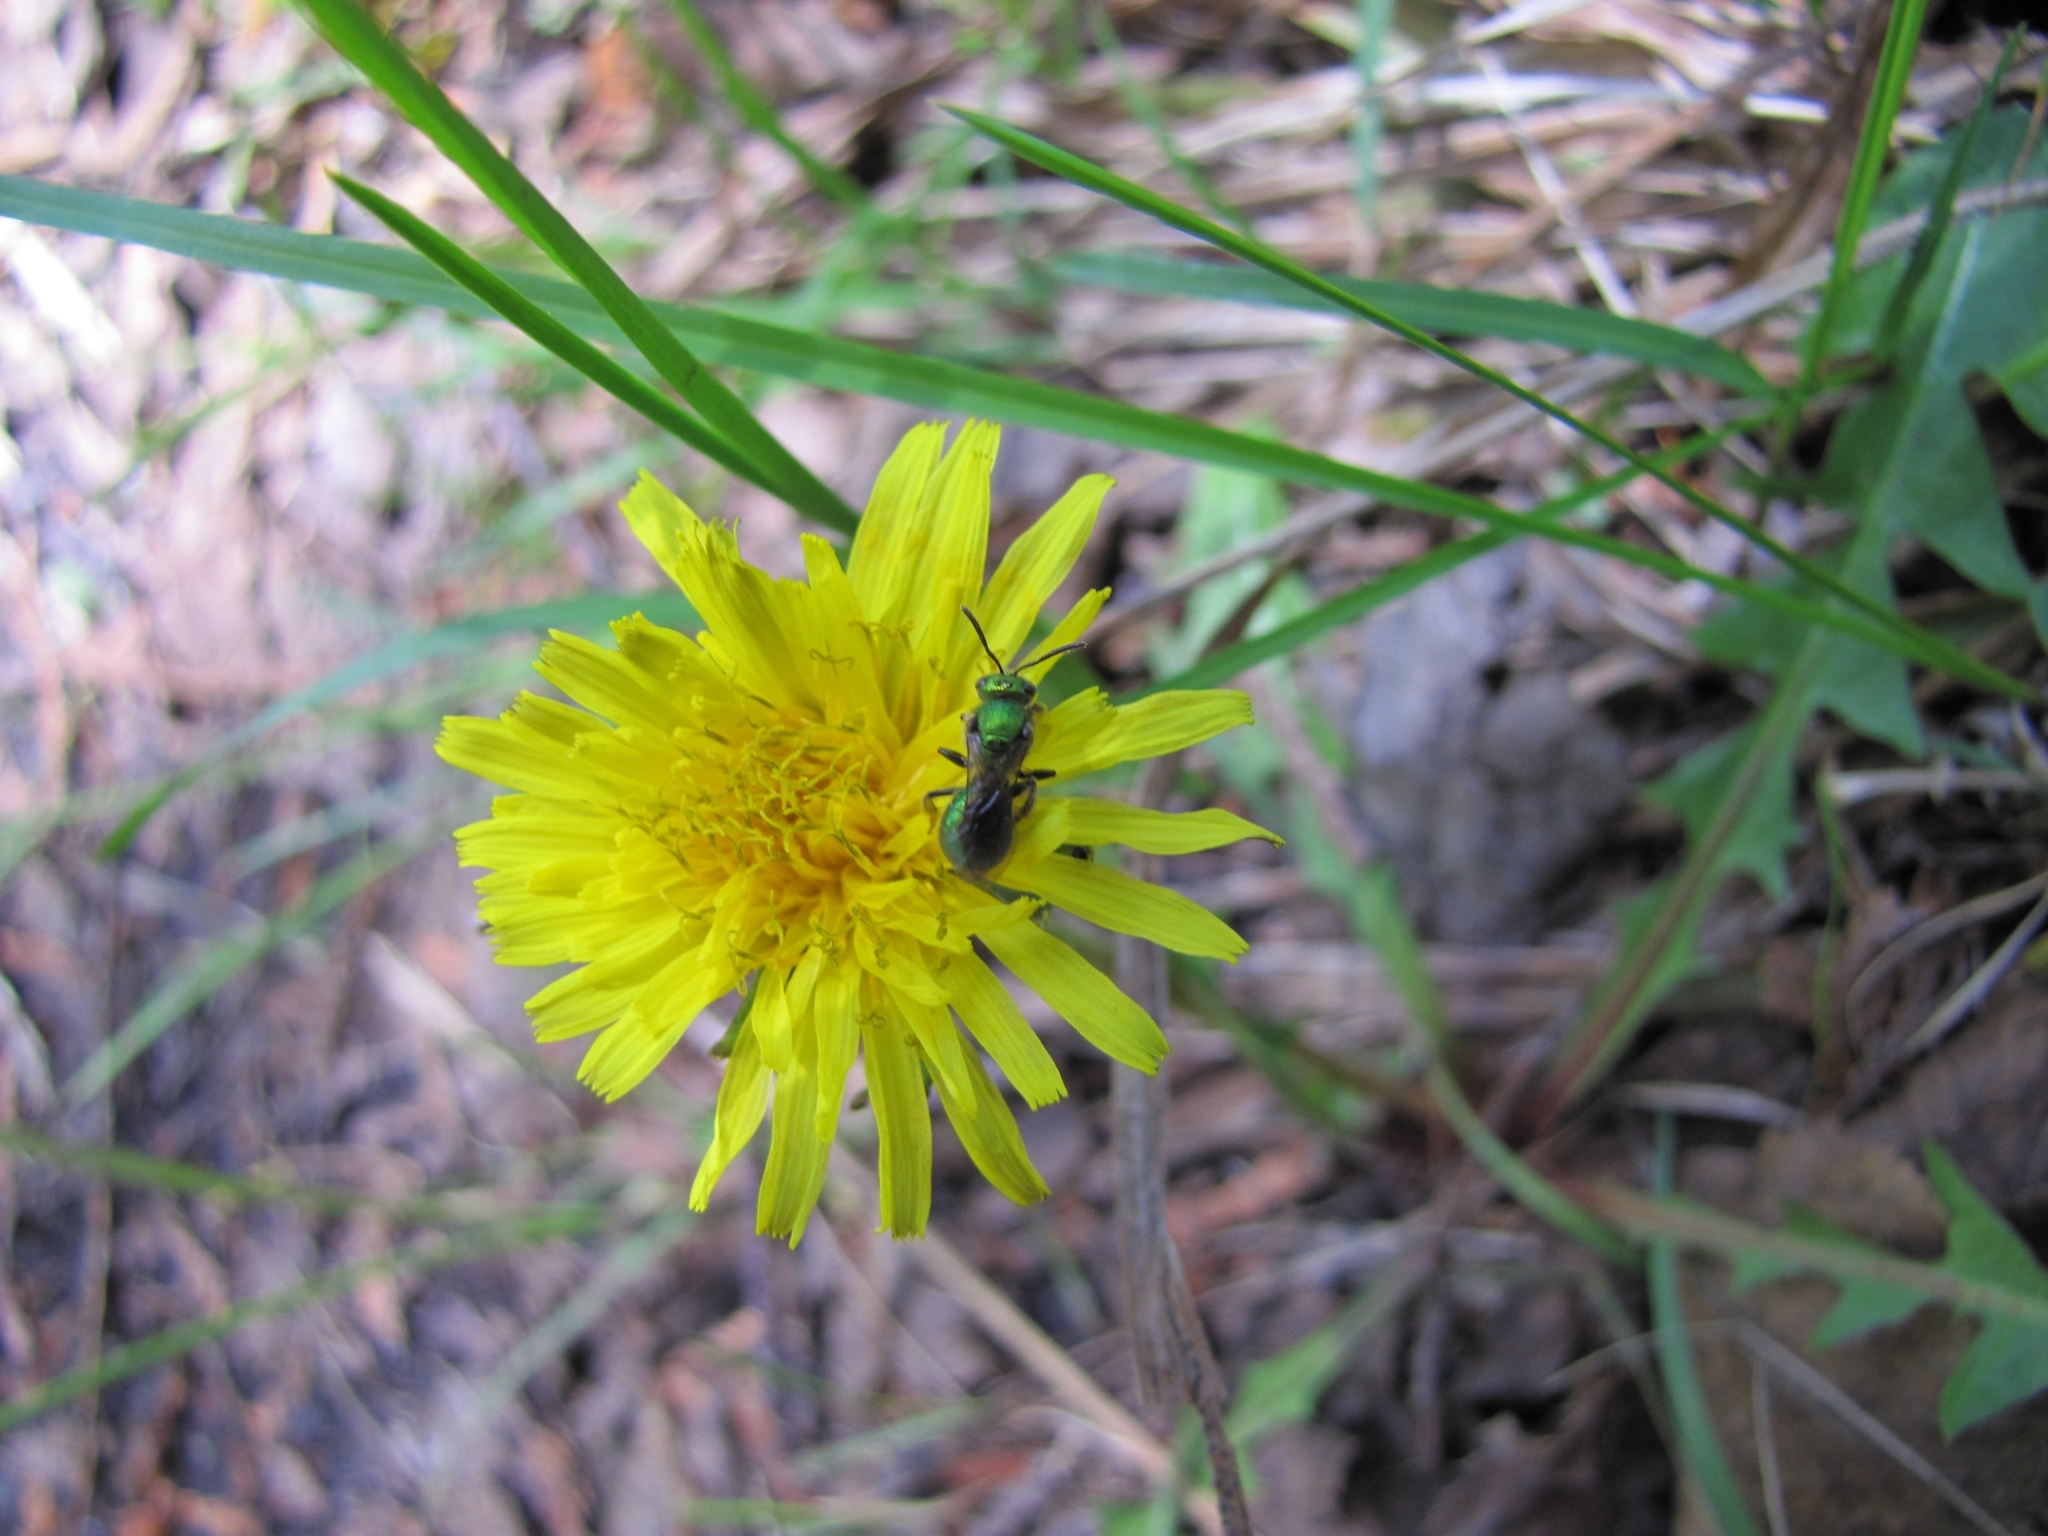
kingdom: Animalia
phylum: Arthropoda
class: Insecta
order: Hymenoptera
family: Halictidae
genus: Augochlora
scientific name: Augochlora pura
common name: Pure green sweat bee
